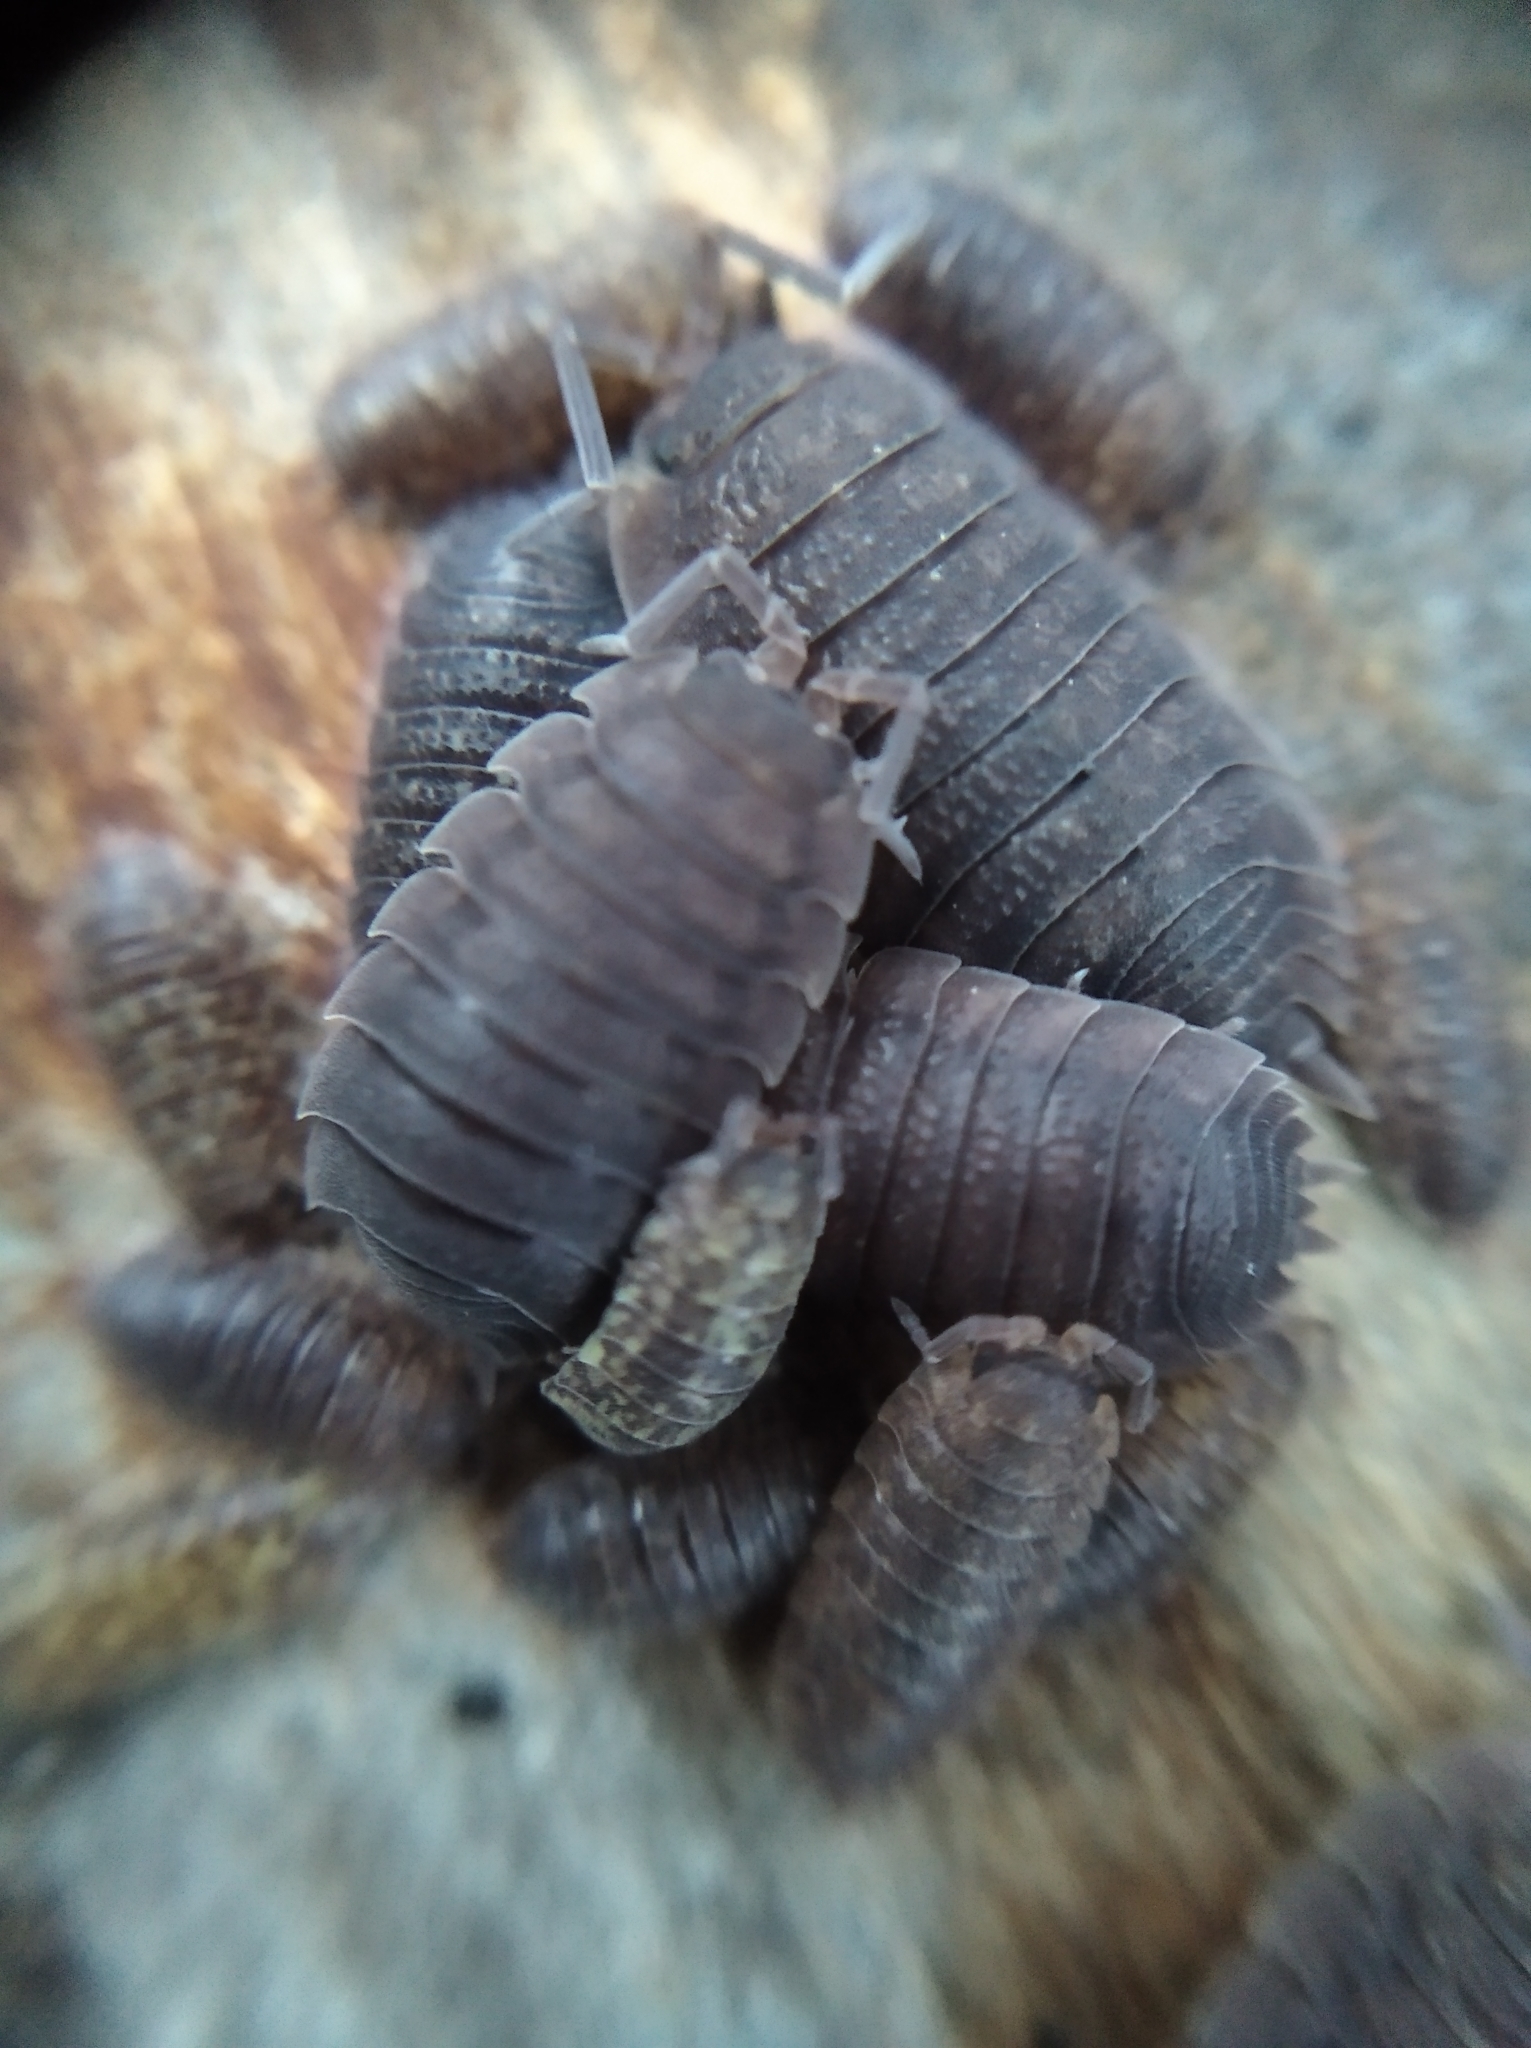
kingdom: Animalia
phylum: Arthropoda
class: Malacostraca
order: Isopoda
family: Porcellionidae
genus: Porcellio
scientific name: Porcellio scaber
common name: Common rough woodlouse
